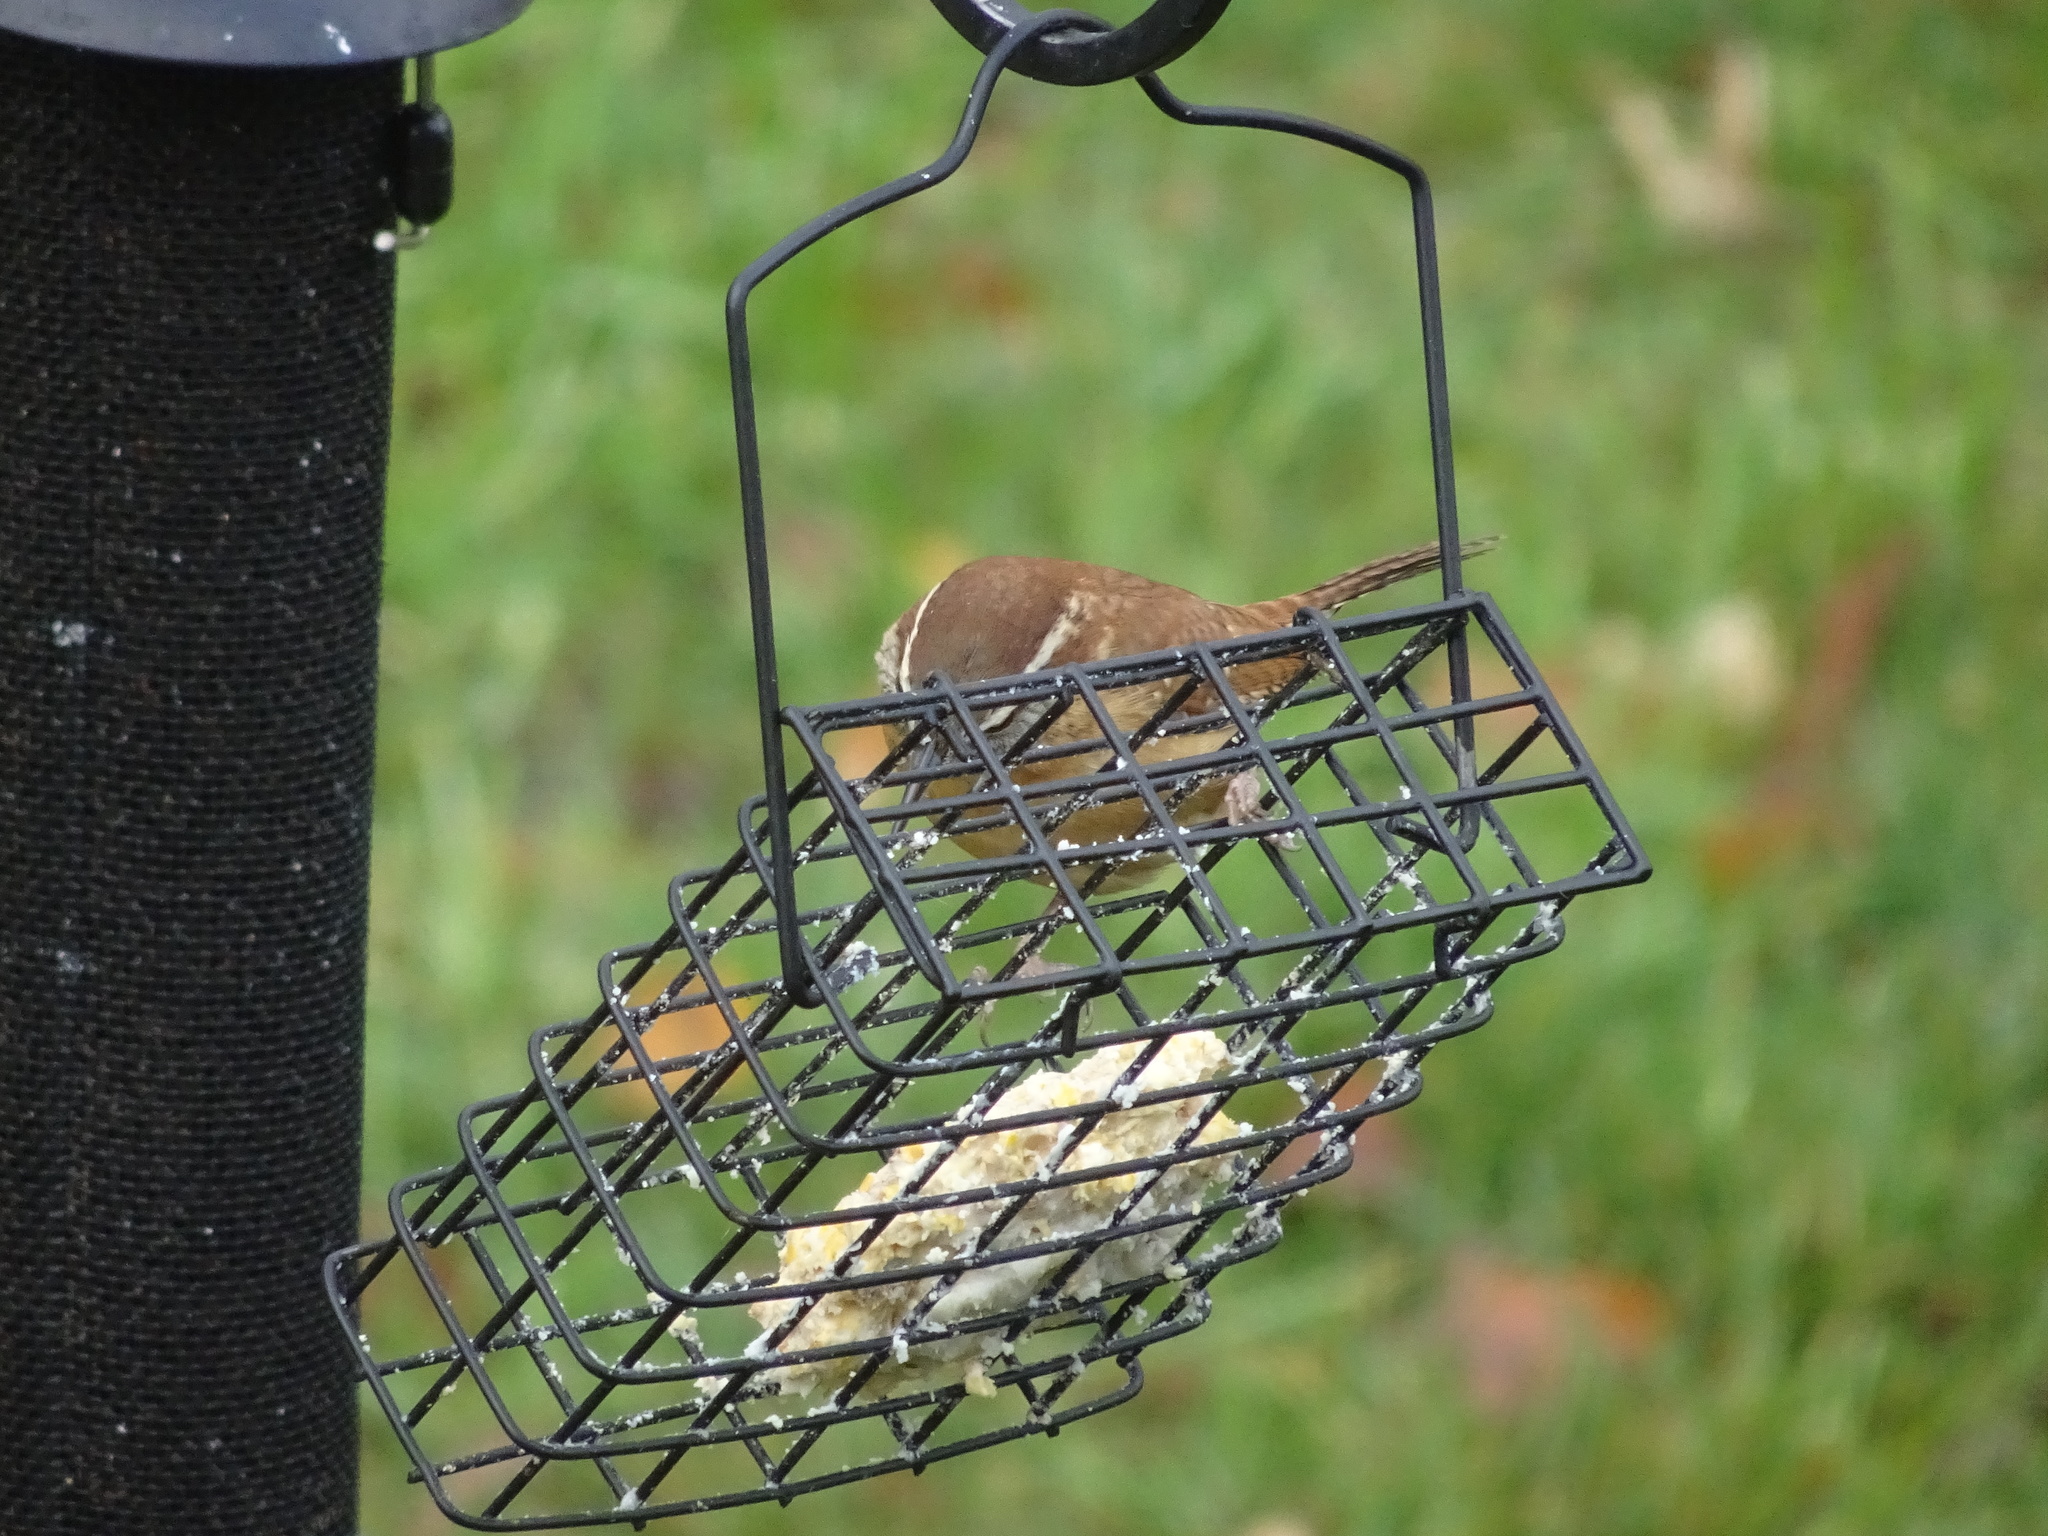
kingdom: Animalia
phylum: Chordata
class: Aves
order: Passeriformes
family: Troglodytidae
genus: Thryothorus
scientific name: Thryothorus ludovicianus
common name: Carolina wren
